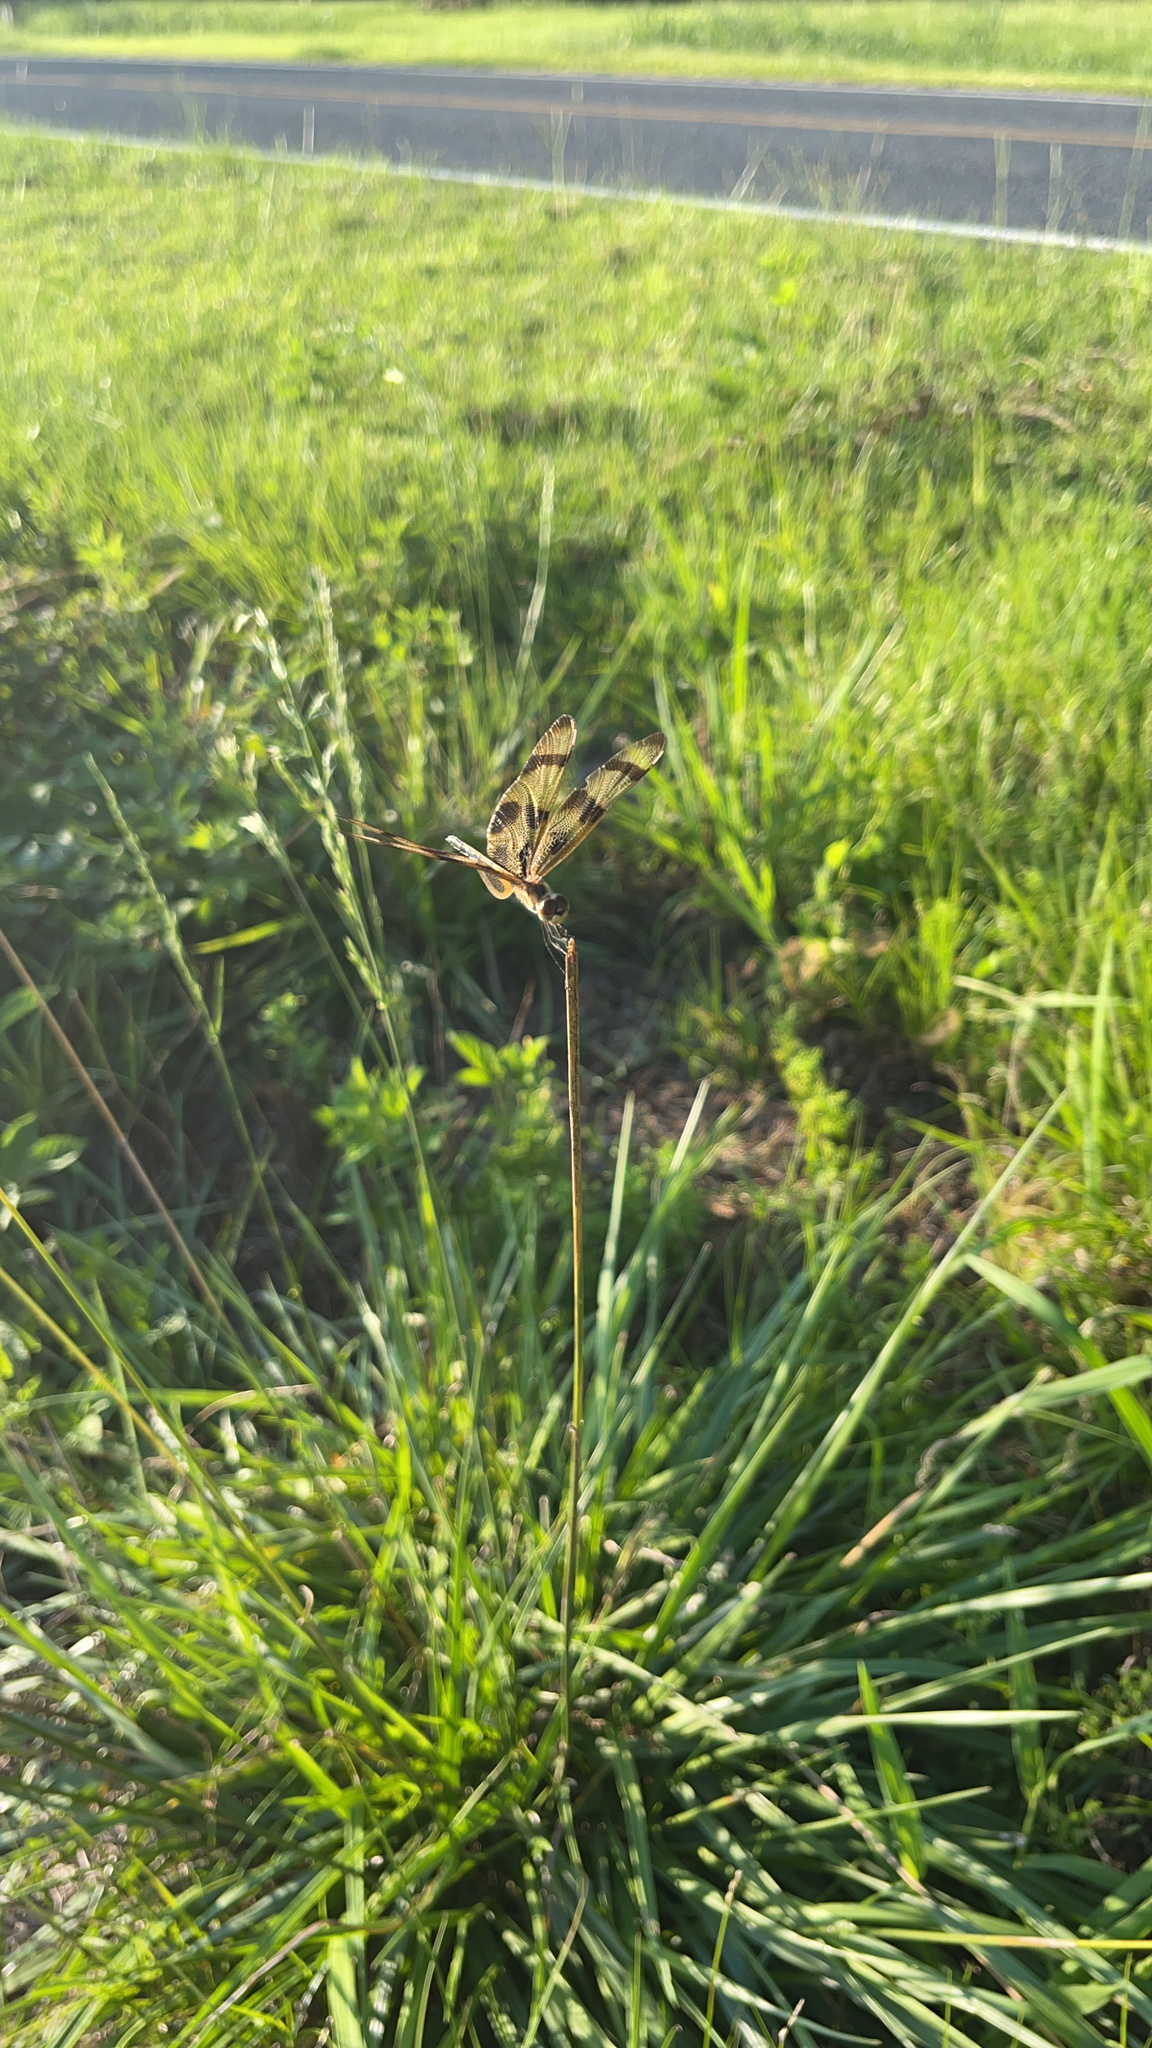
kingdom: Animalia
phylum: Arthropoda
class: Insecta
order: Odonata
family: Libellulidae
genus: Celithemis
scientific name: Celithemis eponina
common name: Halloween pennant
